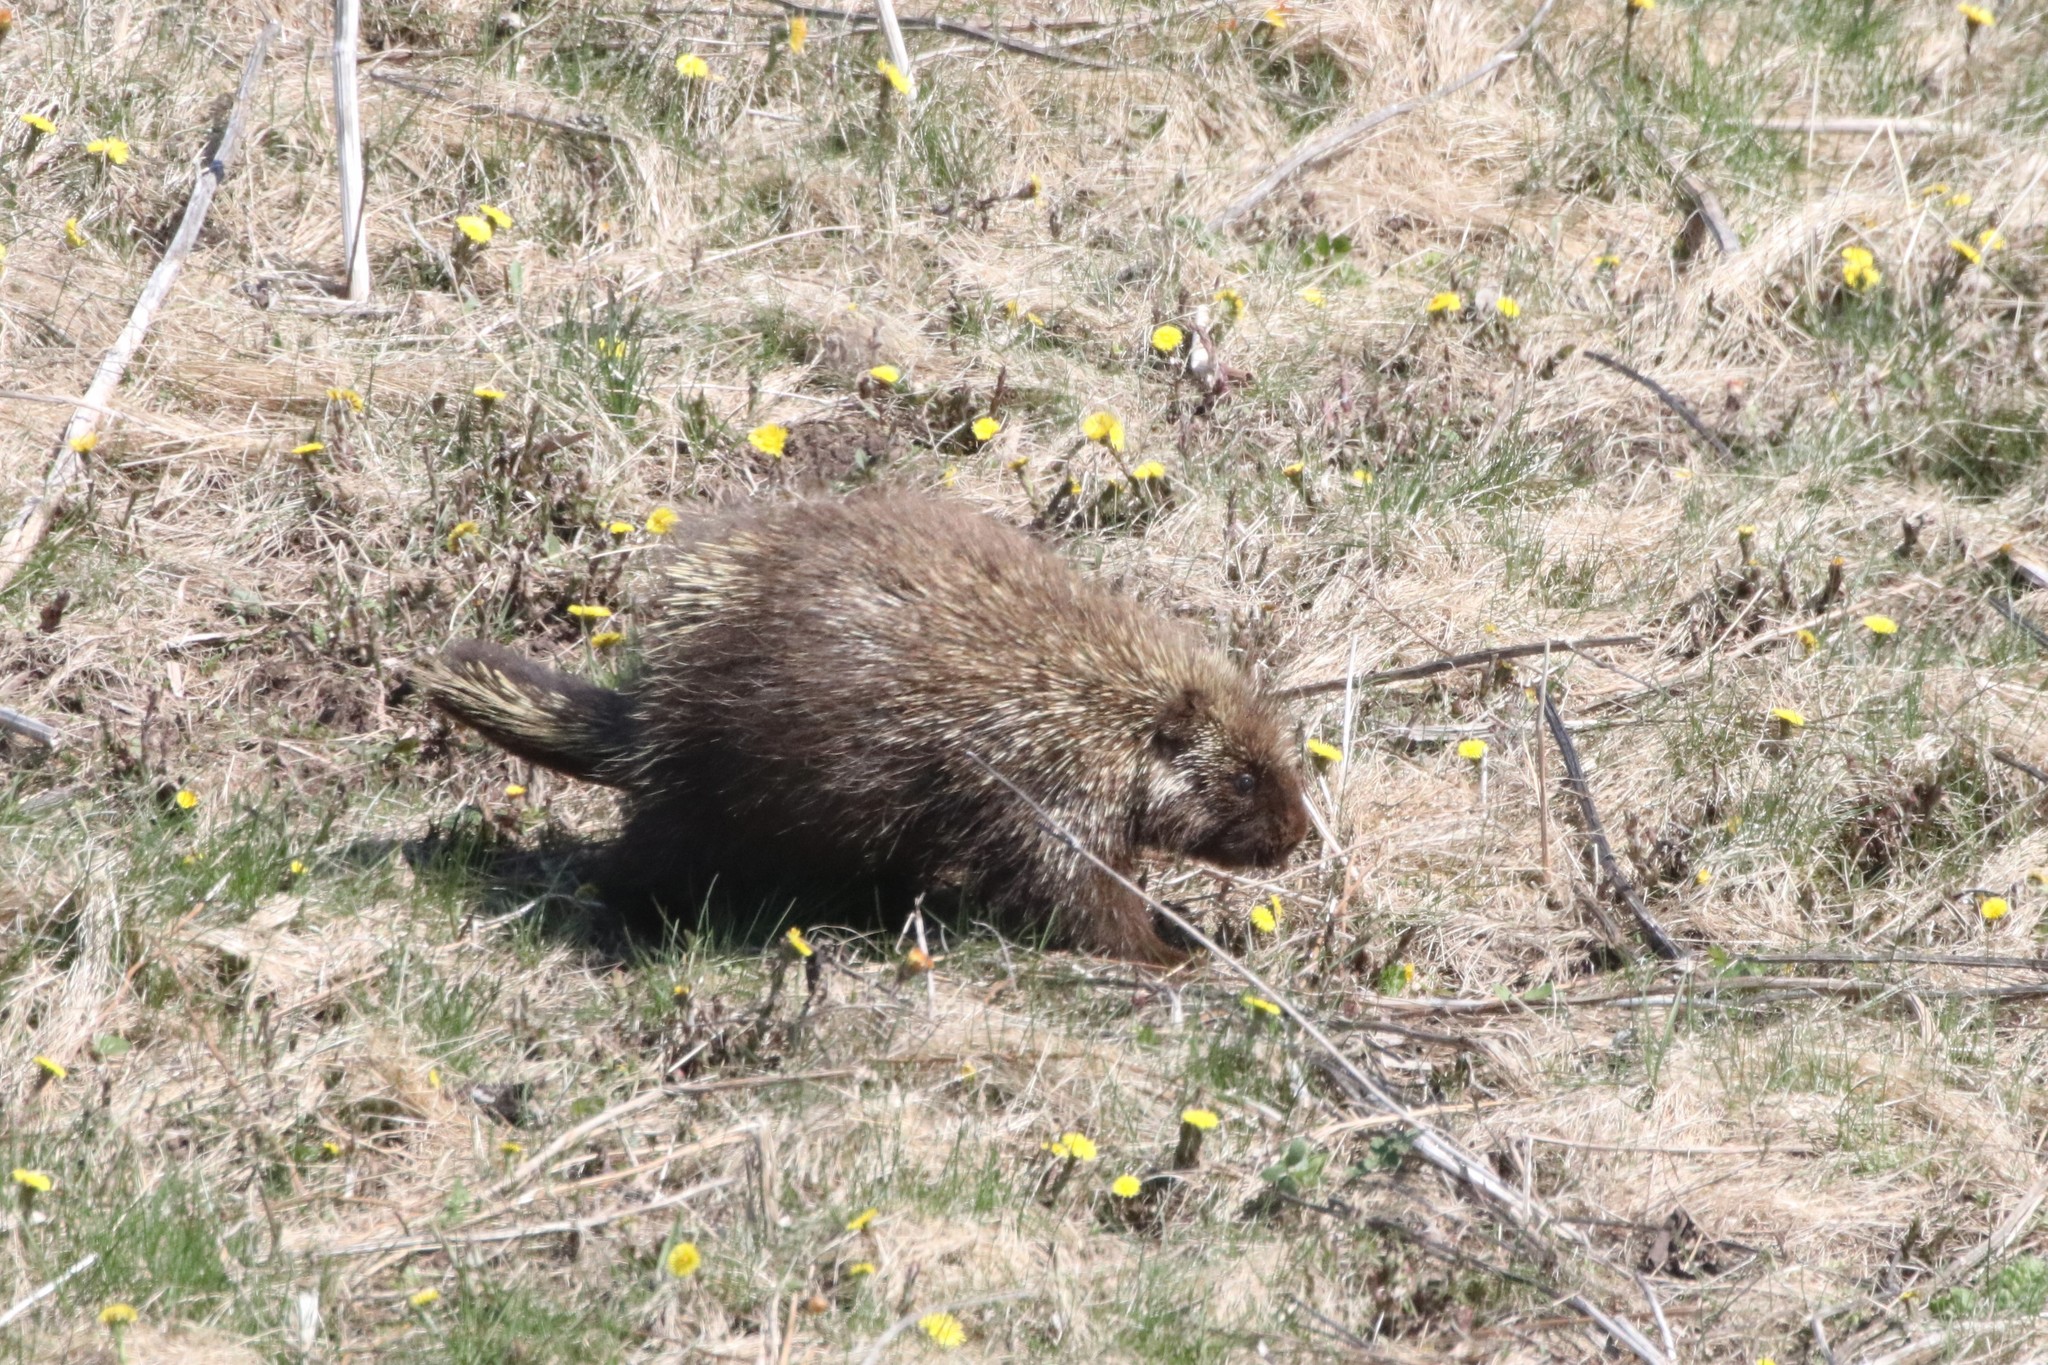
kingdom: Animalia
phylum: Chordata
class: Mammalia
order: Rodentia
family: Erethizontidae
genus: Erethizon
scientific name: Erethizon dorsatus
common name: North american porcupine
